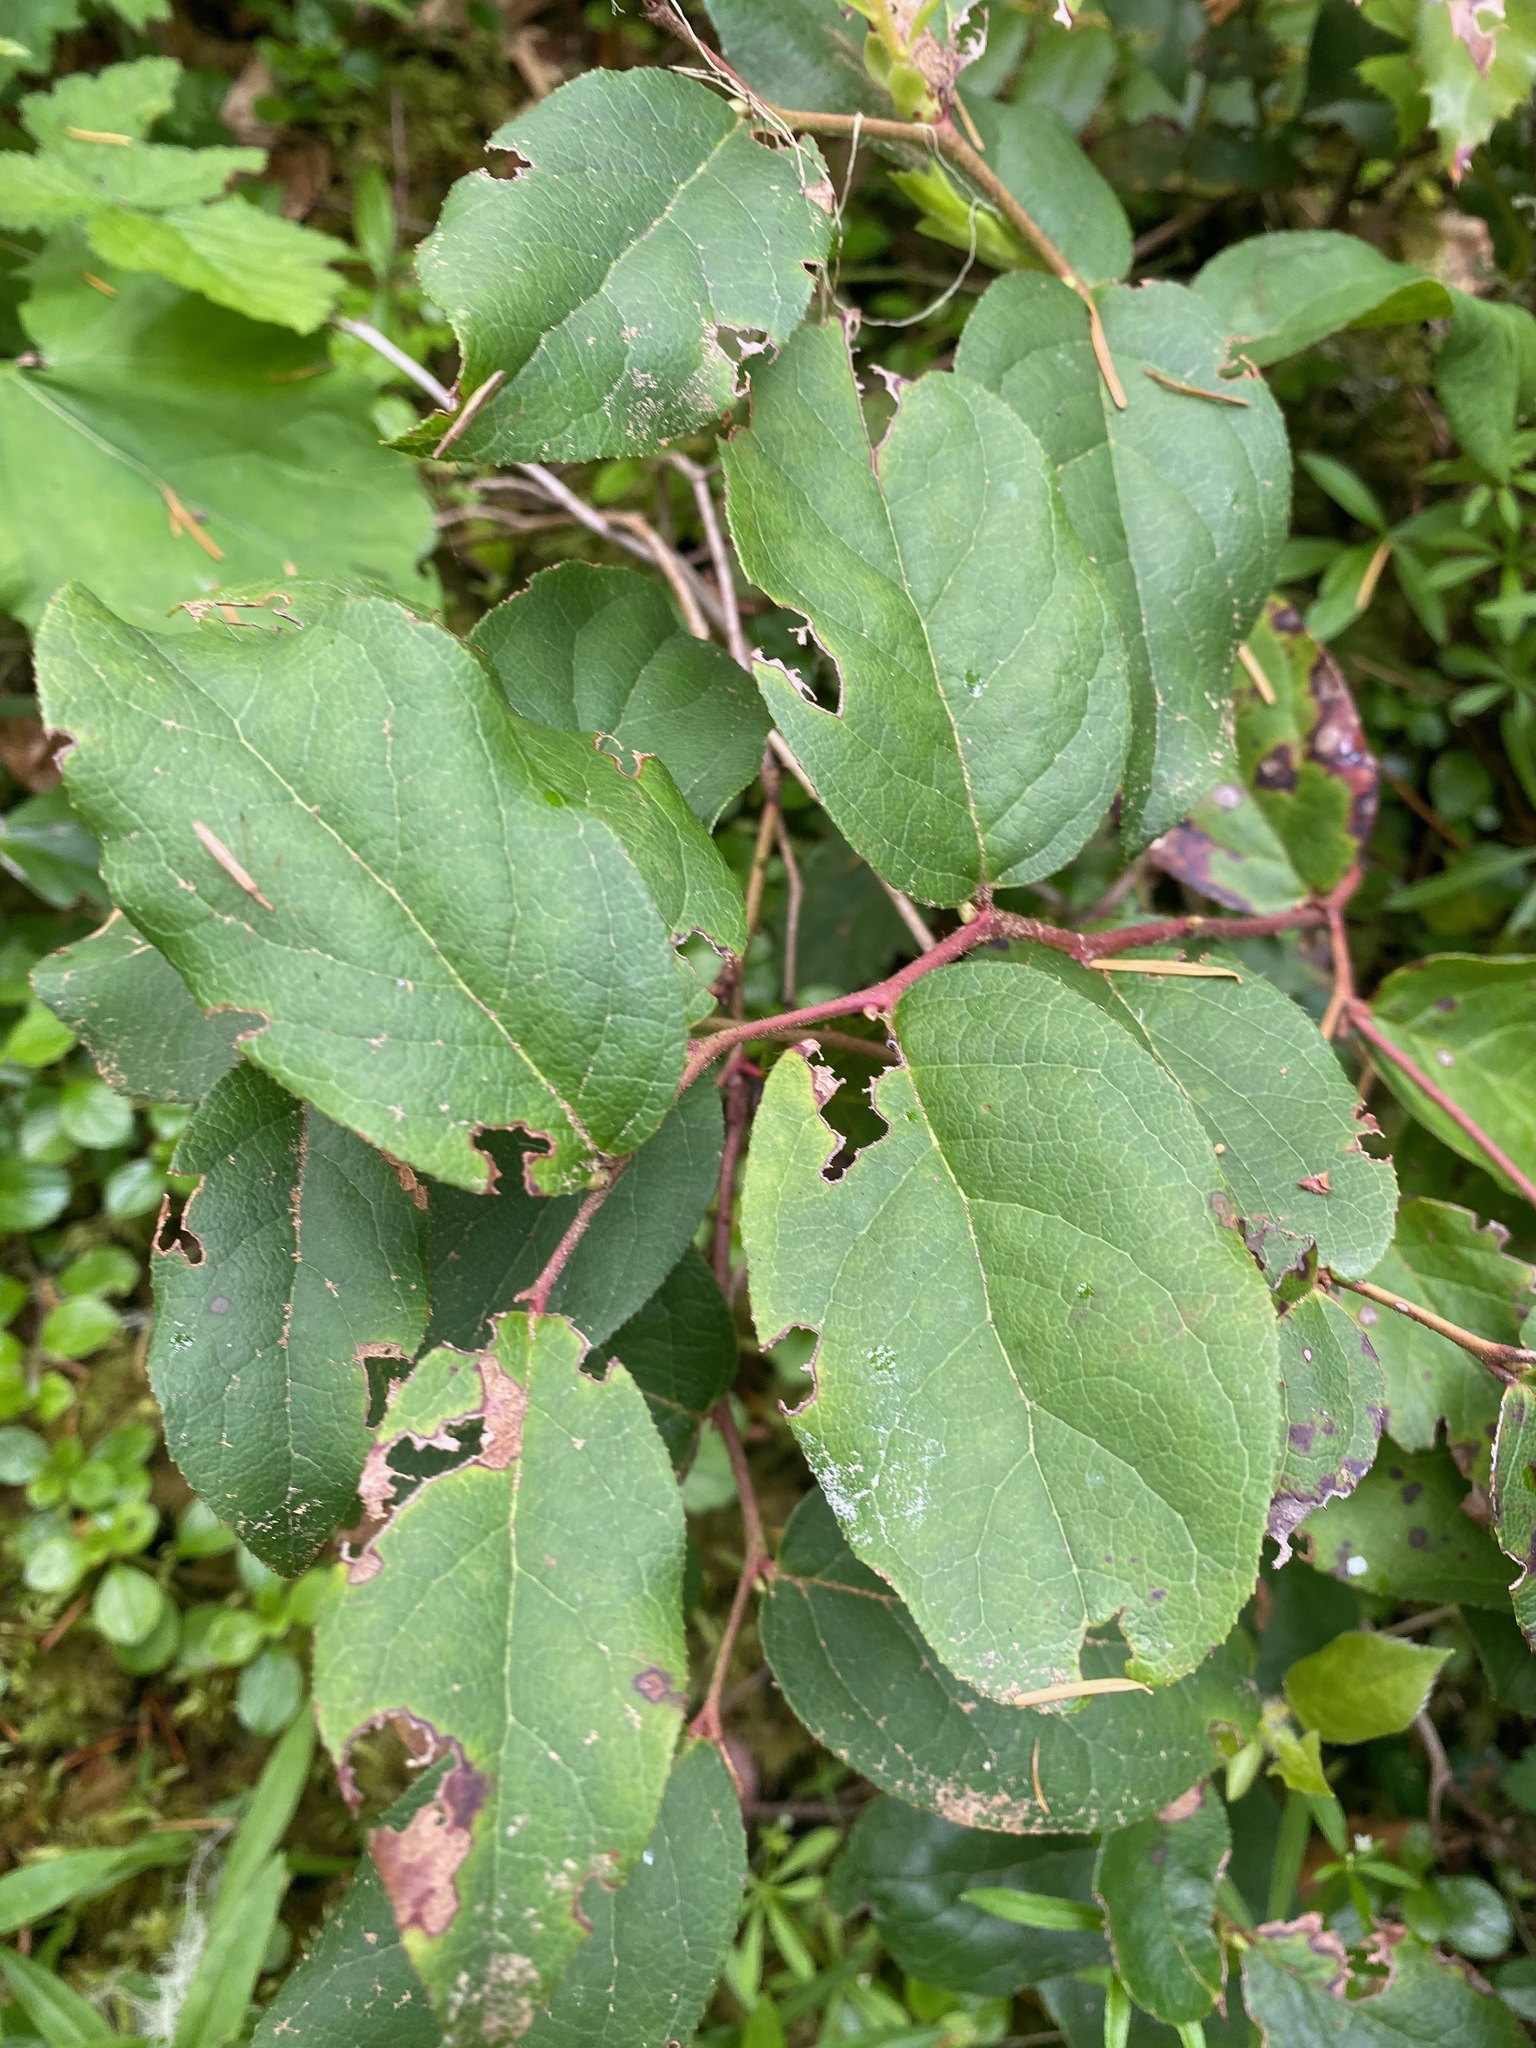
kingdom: Plantae
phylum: Tracheophyta
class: Magnoliopsida
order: Ericales
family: Ericaceae
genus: Gaultheria
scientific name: Gaultheria shallon
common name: Shallon
